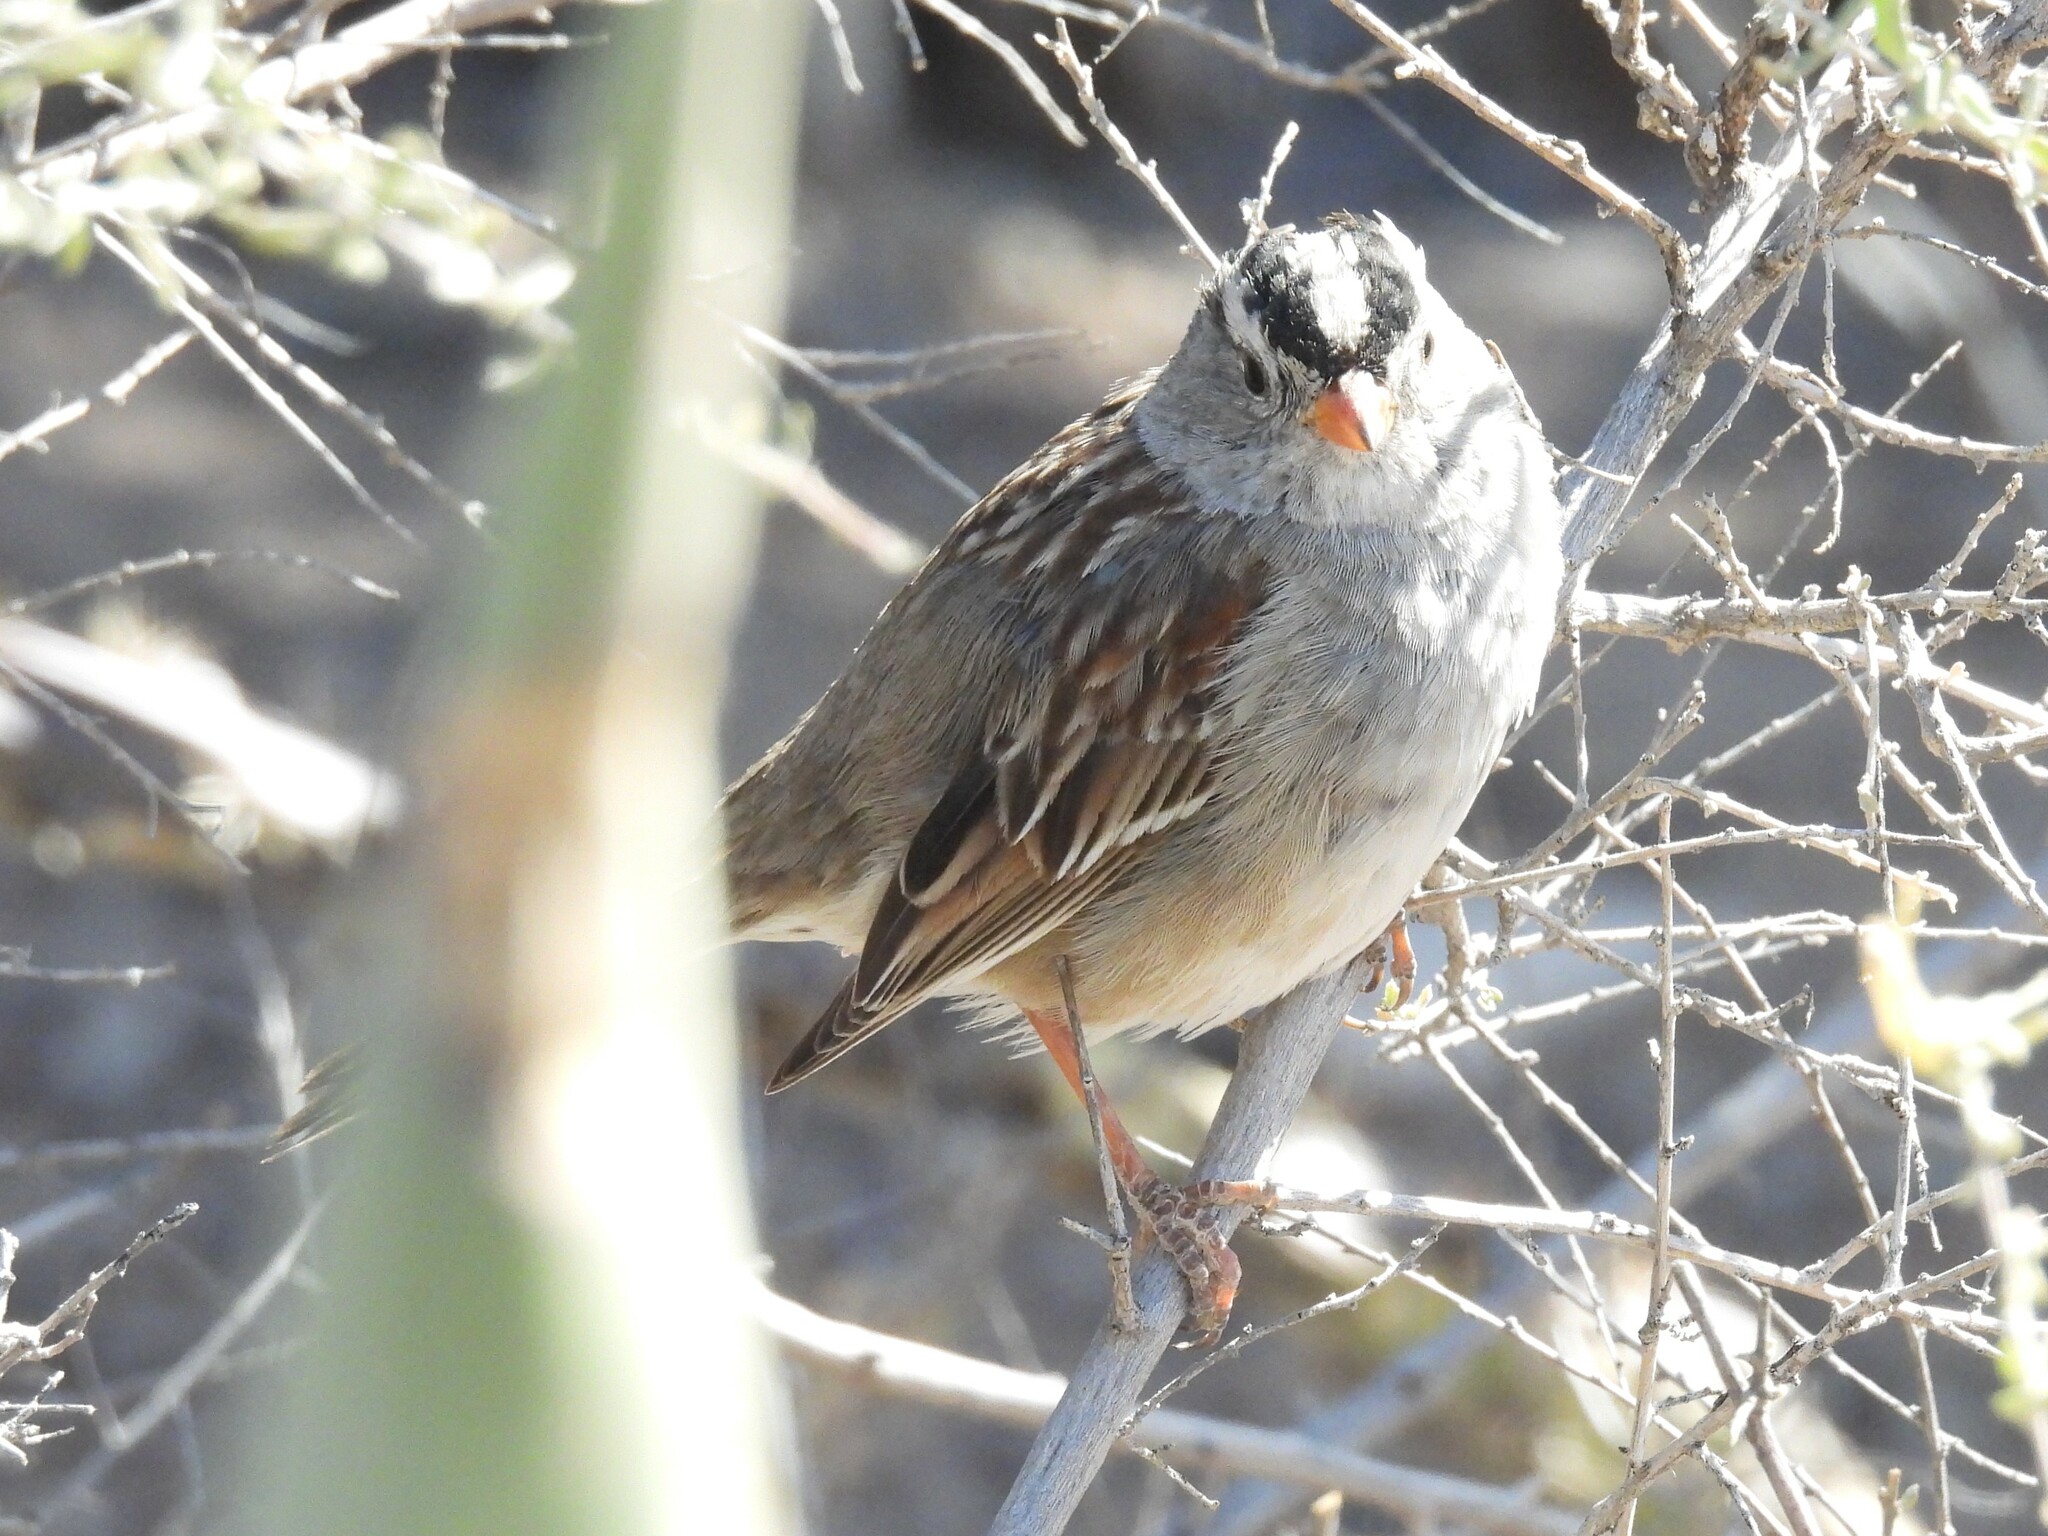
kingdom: Animalia
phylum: Chordata
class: Aves
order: Passeriformes
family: Passerellidae
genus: Zonotrichia
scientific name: Zonotrichia leucophrys
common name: White-crowned sparrow
